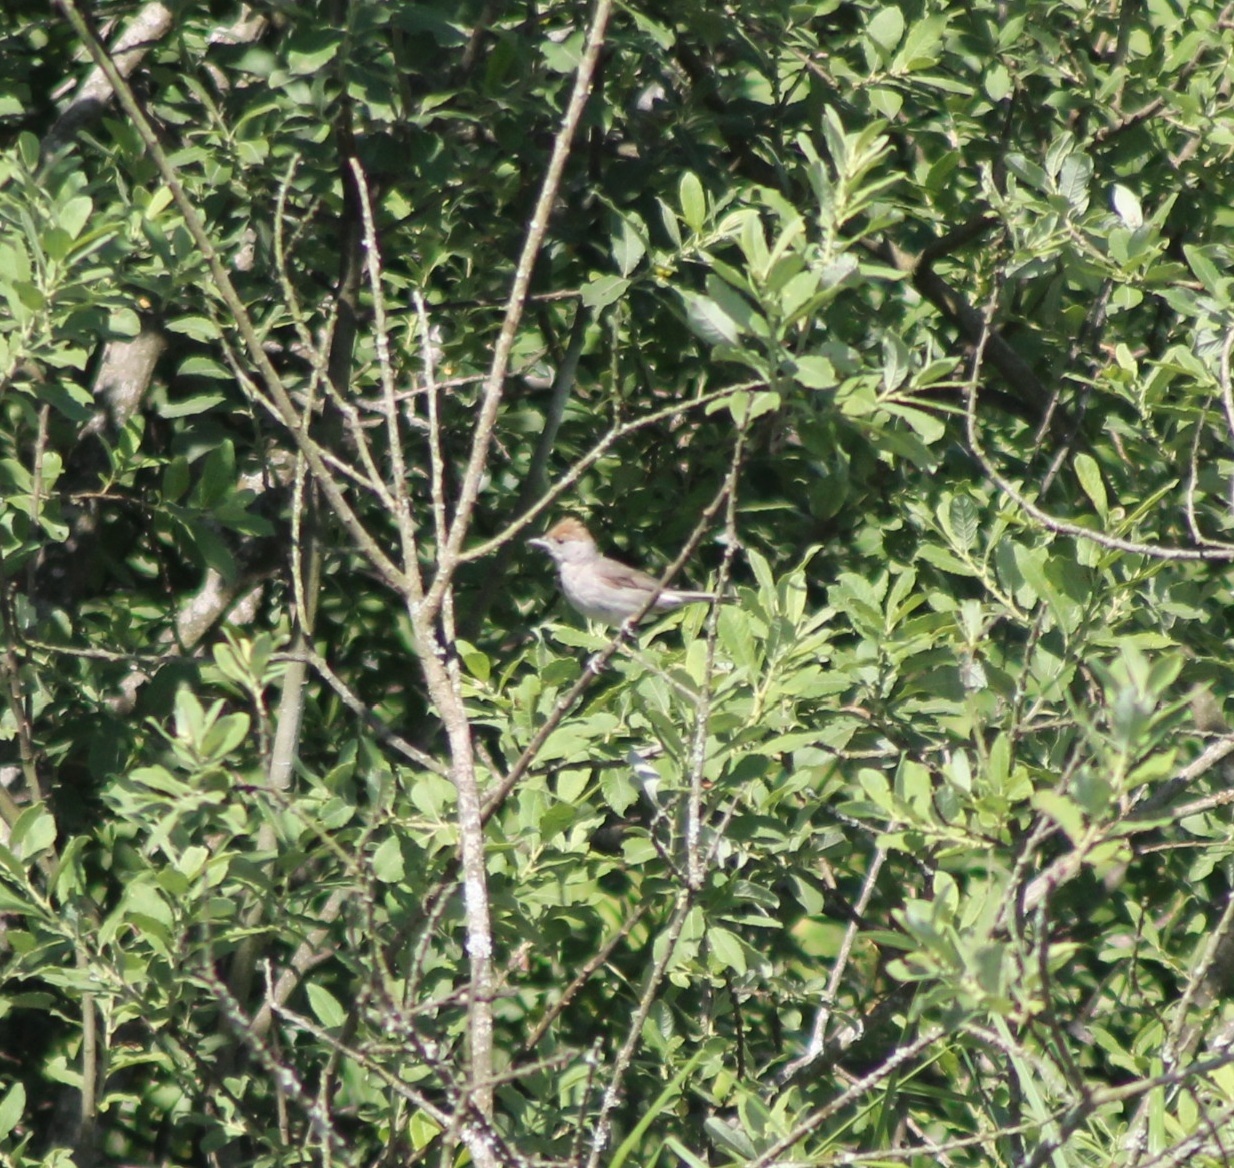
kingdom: Animalia
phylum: Chordata
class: Aves
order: Passeriformes
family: Sylviidae
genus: Sylvia
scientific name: Sylvia atricapilla
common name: Eurasian blackcap
